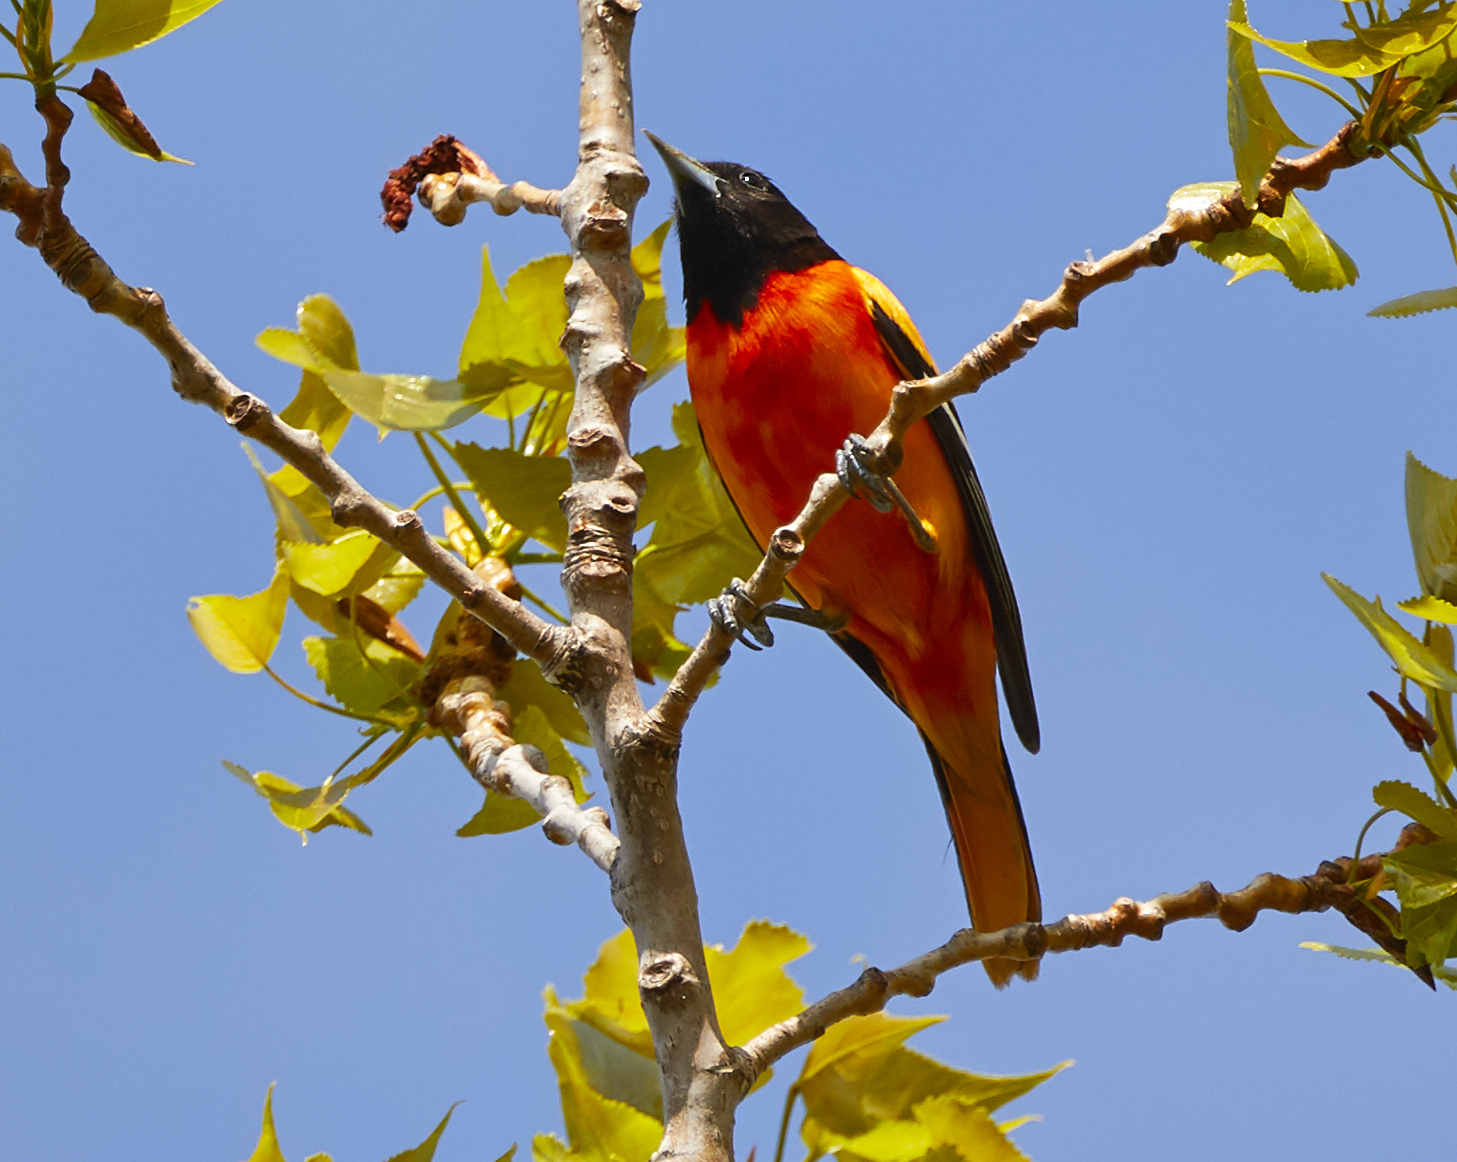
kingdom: Animalia
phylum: Chordata
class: Aves
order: Passeriformes
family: Icteridae
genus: Icterus
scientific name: Icterus galbula
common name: Baltimore oriole
